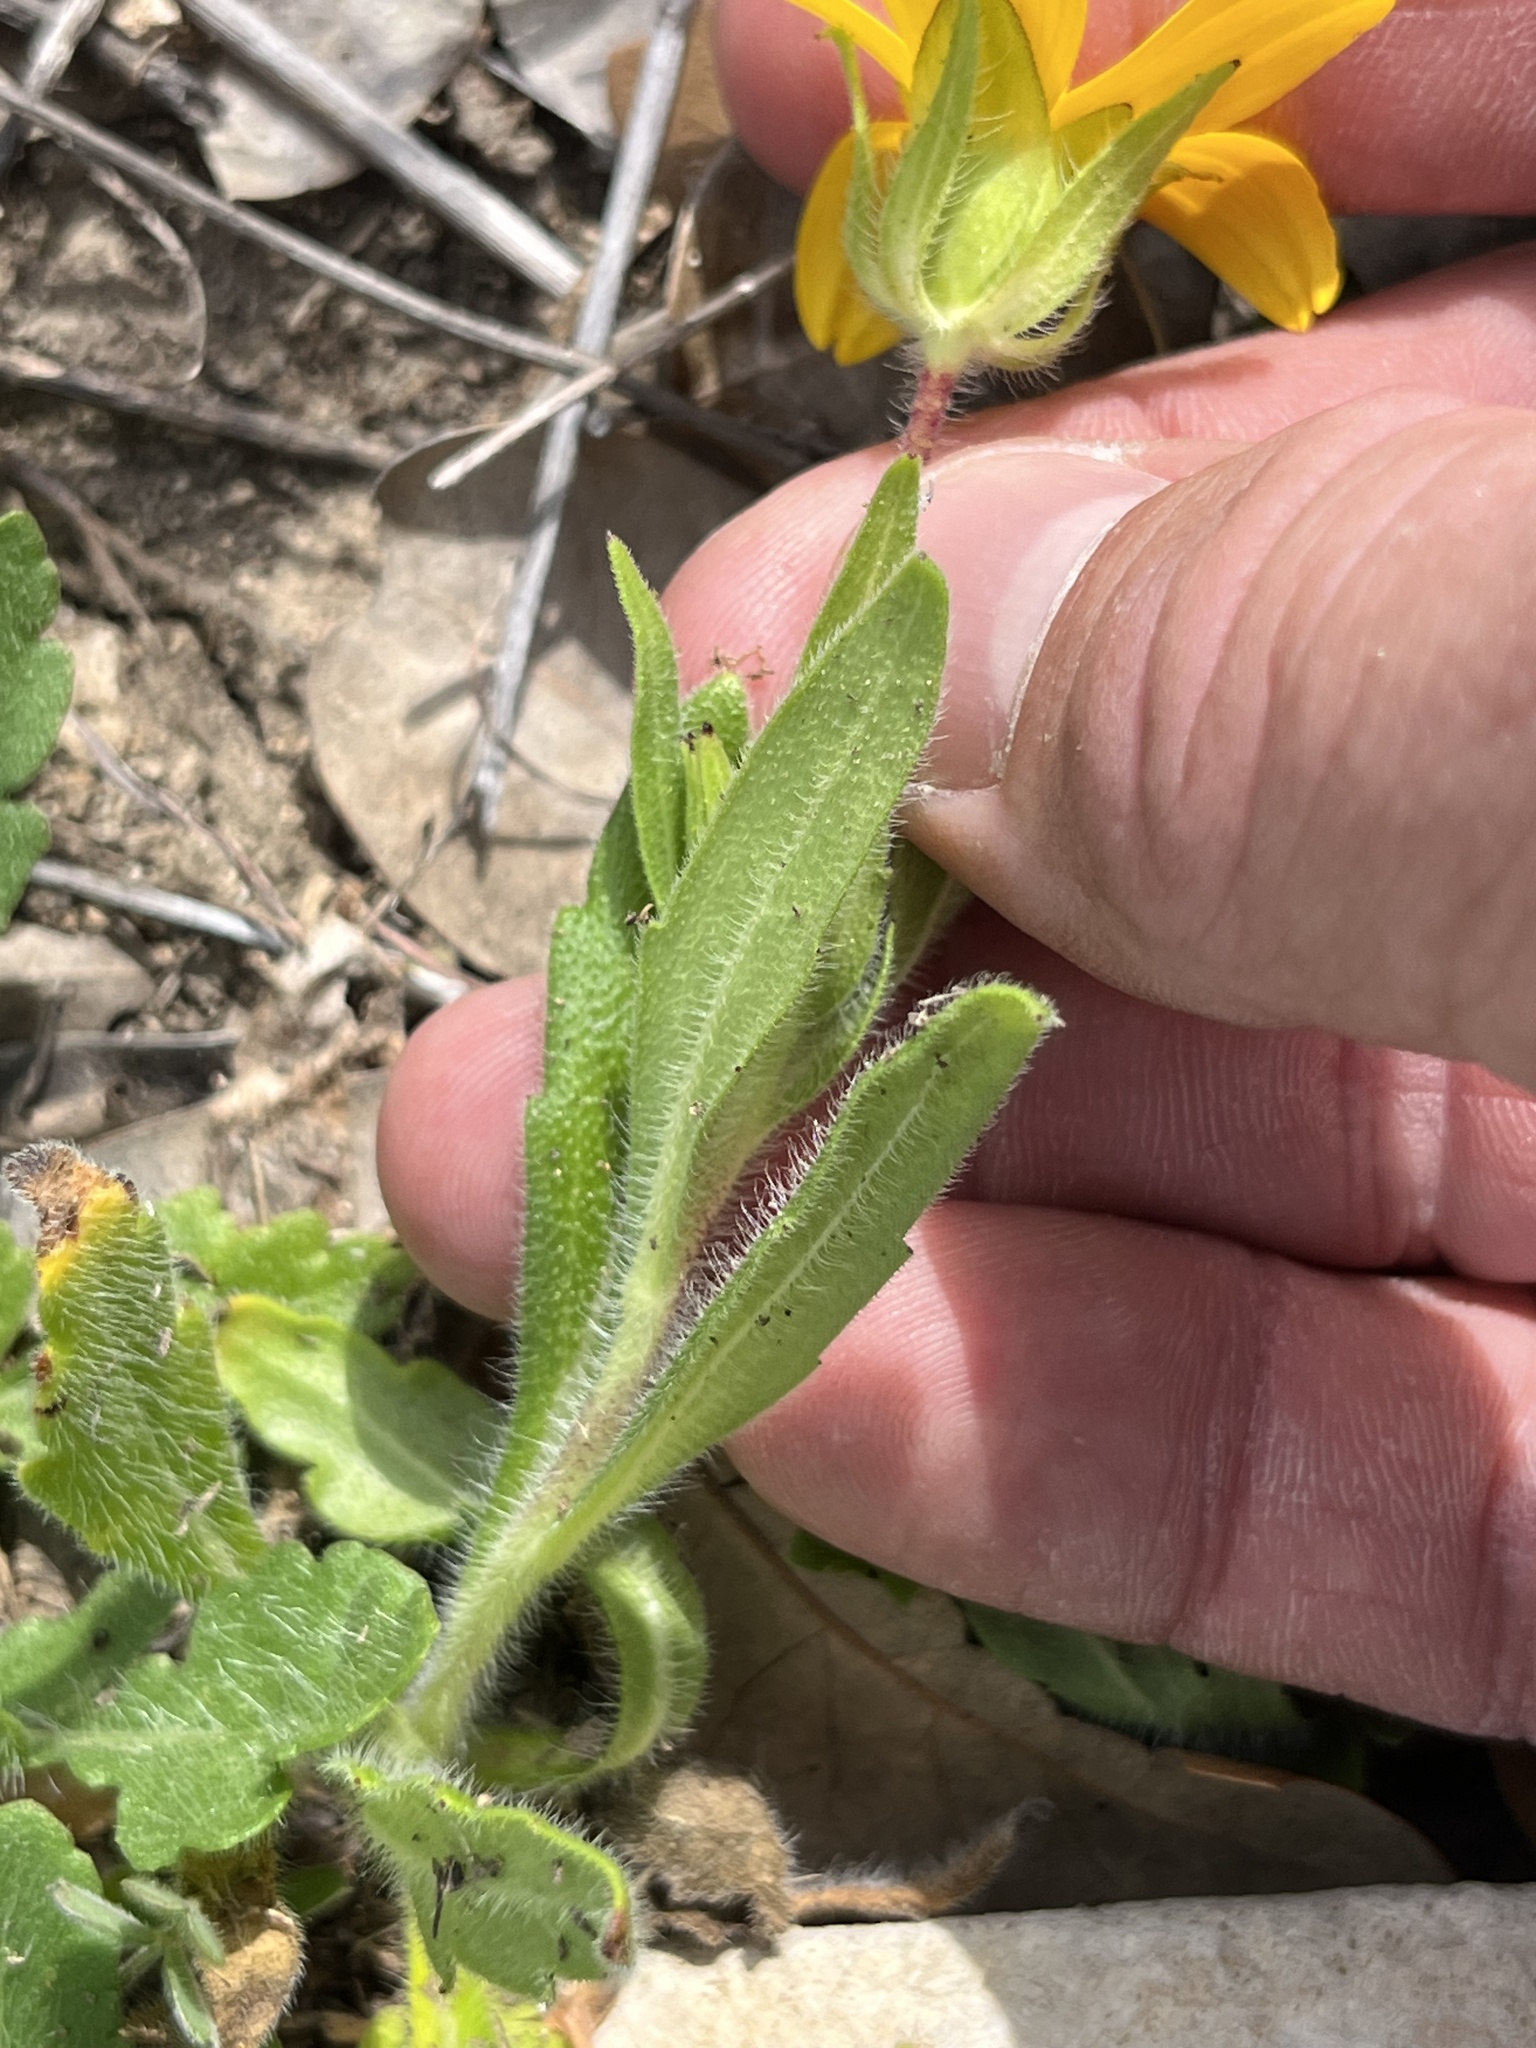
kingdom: Plantae
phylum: Tracheophyta
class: Magnoliopsida
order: Asterales
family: Asteraceae
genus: Lindheimera
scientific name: Lindheimera texana
